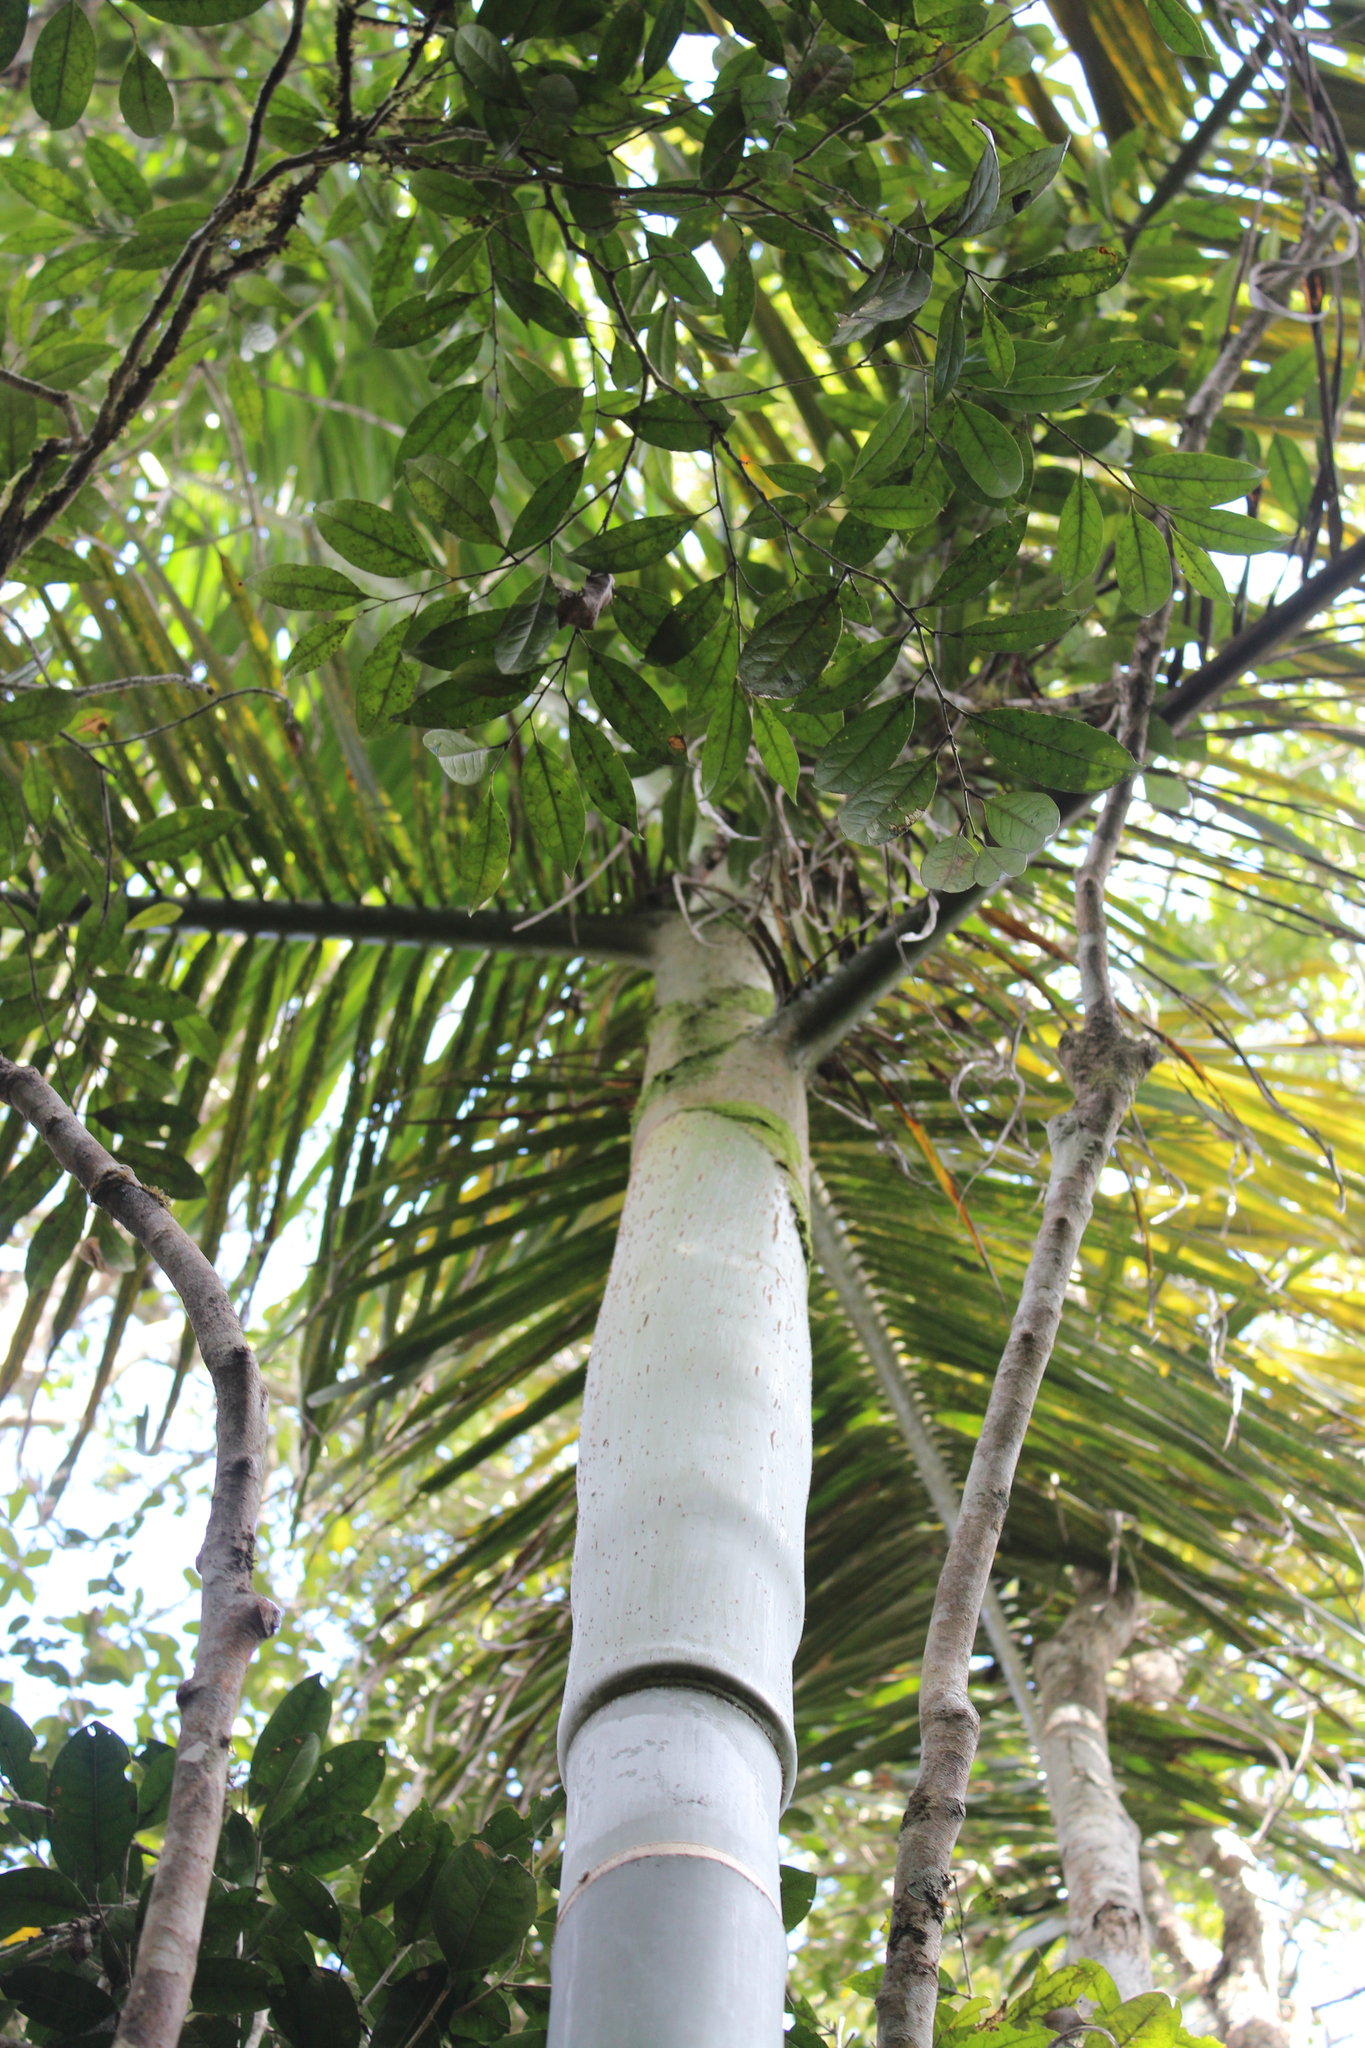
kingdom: Plantae
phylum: Tracheophyta
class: Liliopsida
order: Arecales
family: Arecaceae
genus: Dypsis
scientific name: Dypsis baronii
